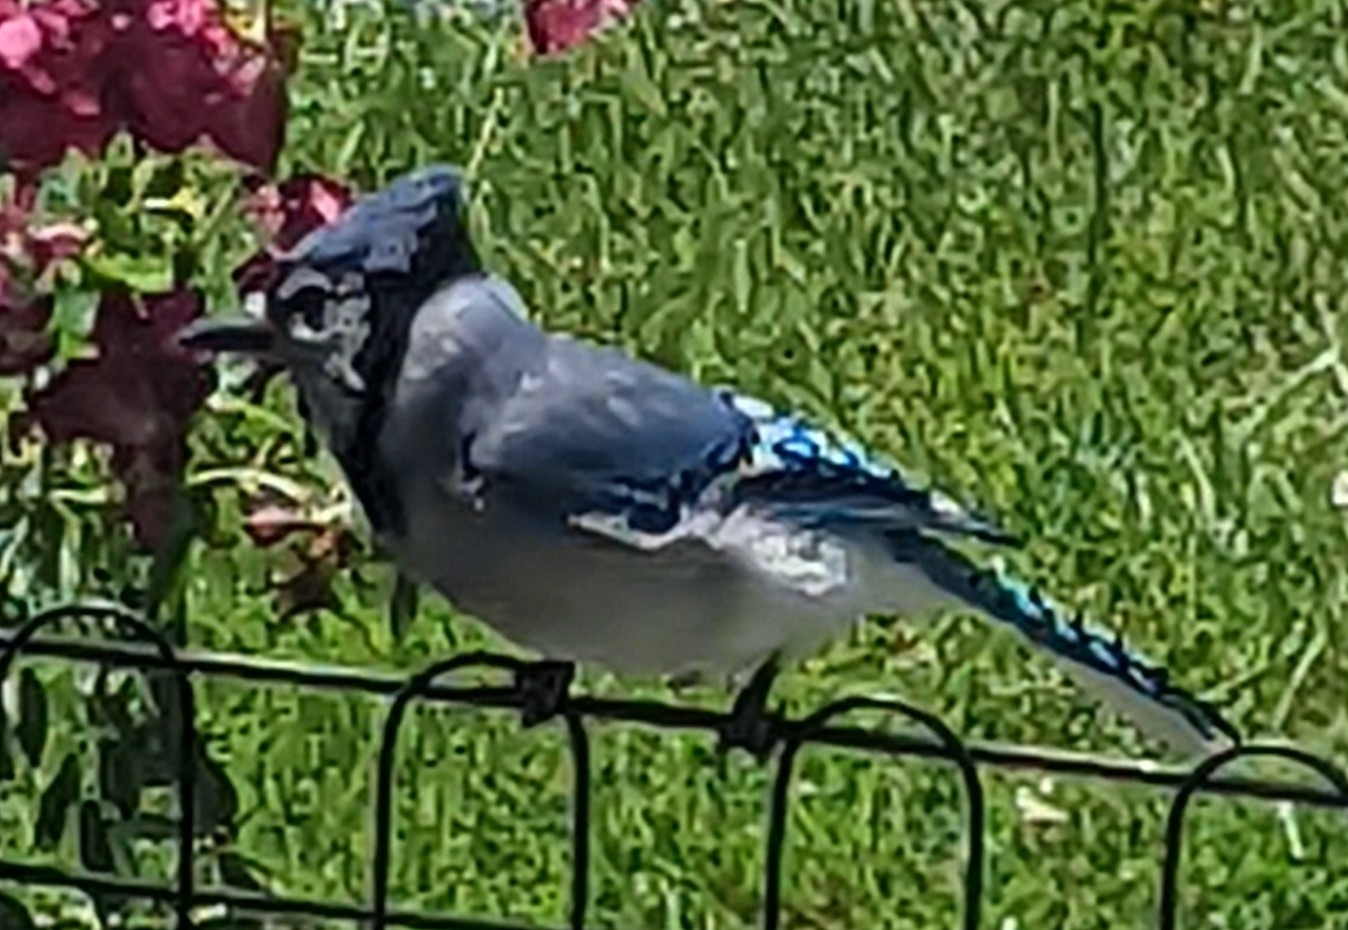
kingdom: Animalia
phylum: Chordata
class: Aves
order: Passeriformes
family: Corvidae
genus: Cyanocitta
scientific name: Cyanocitta cristata
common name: Blue jay
